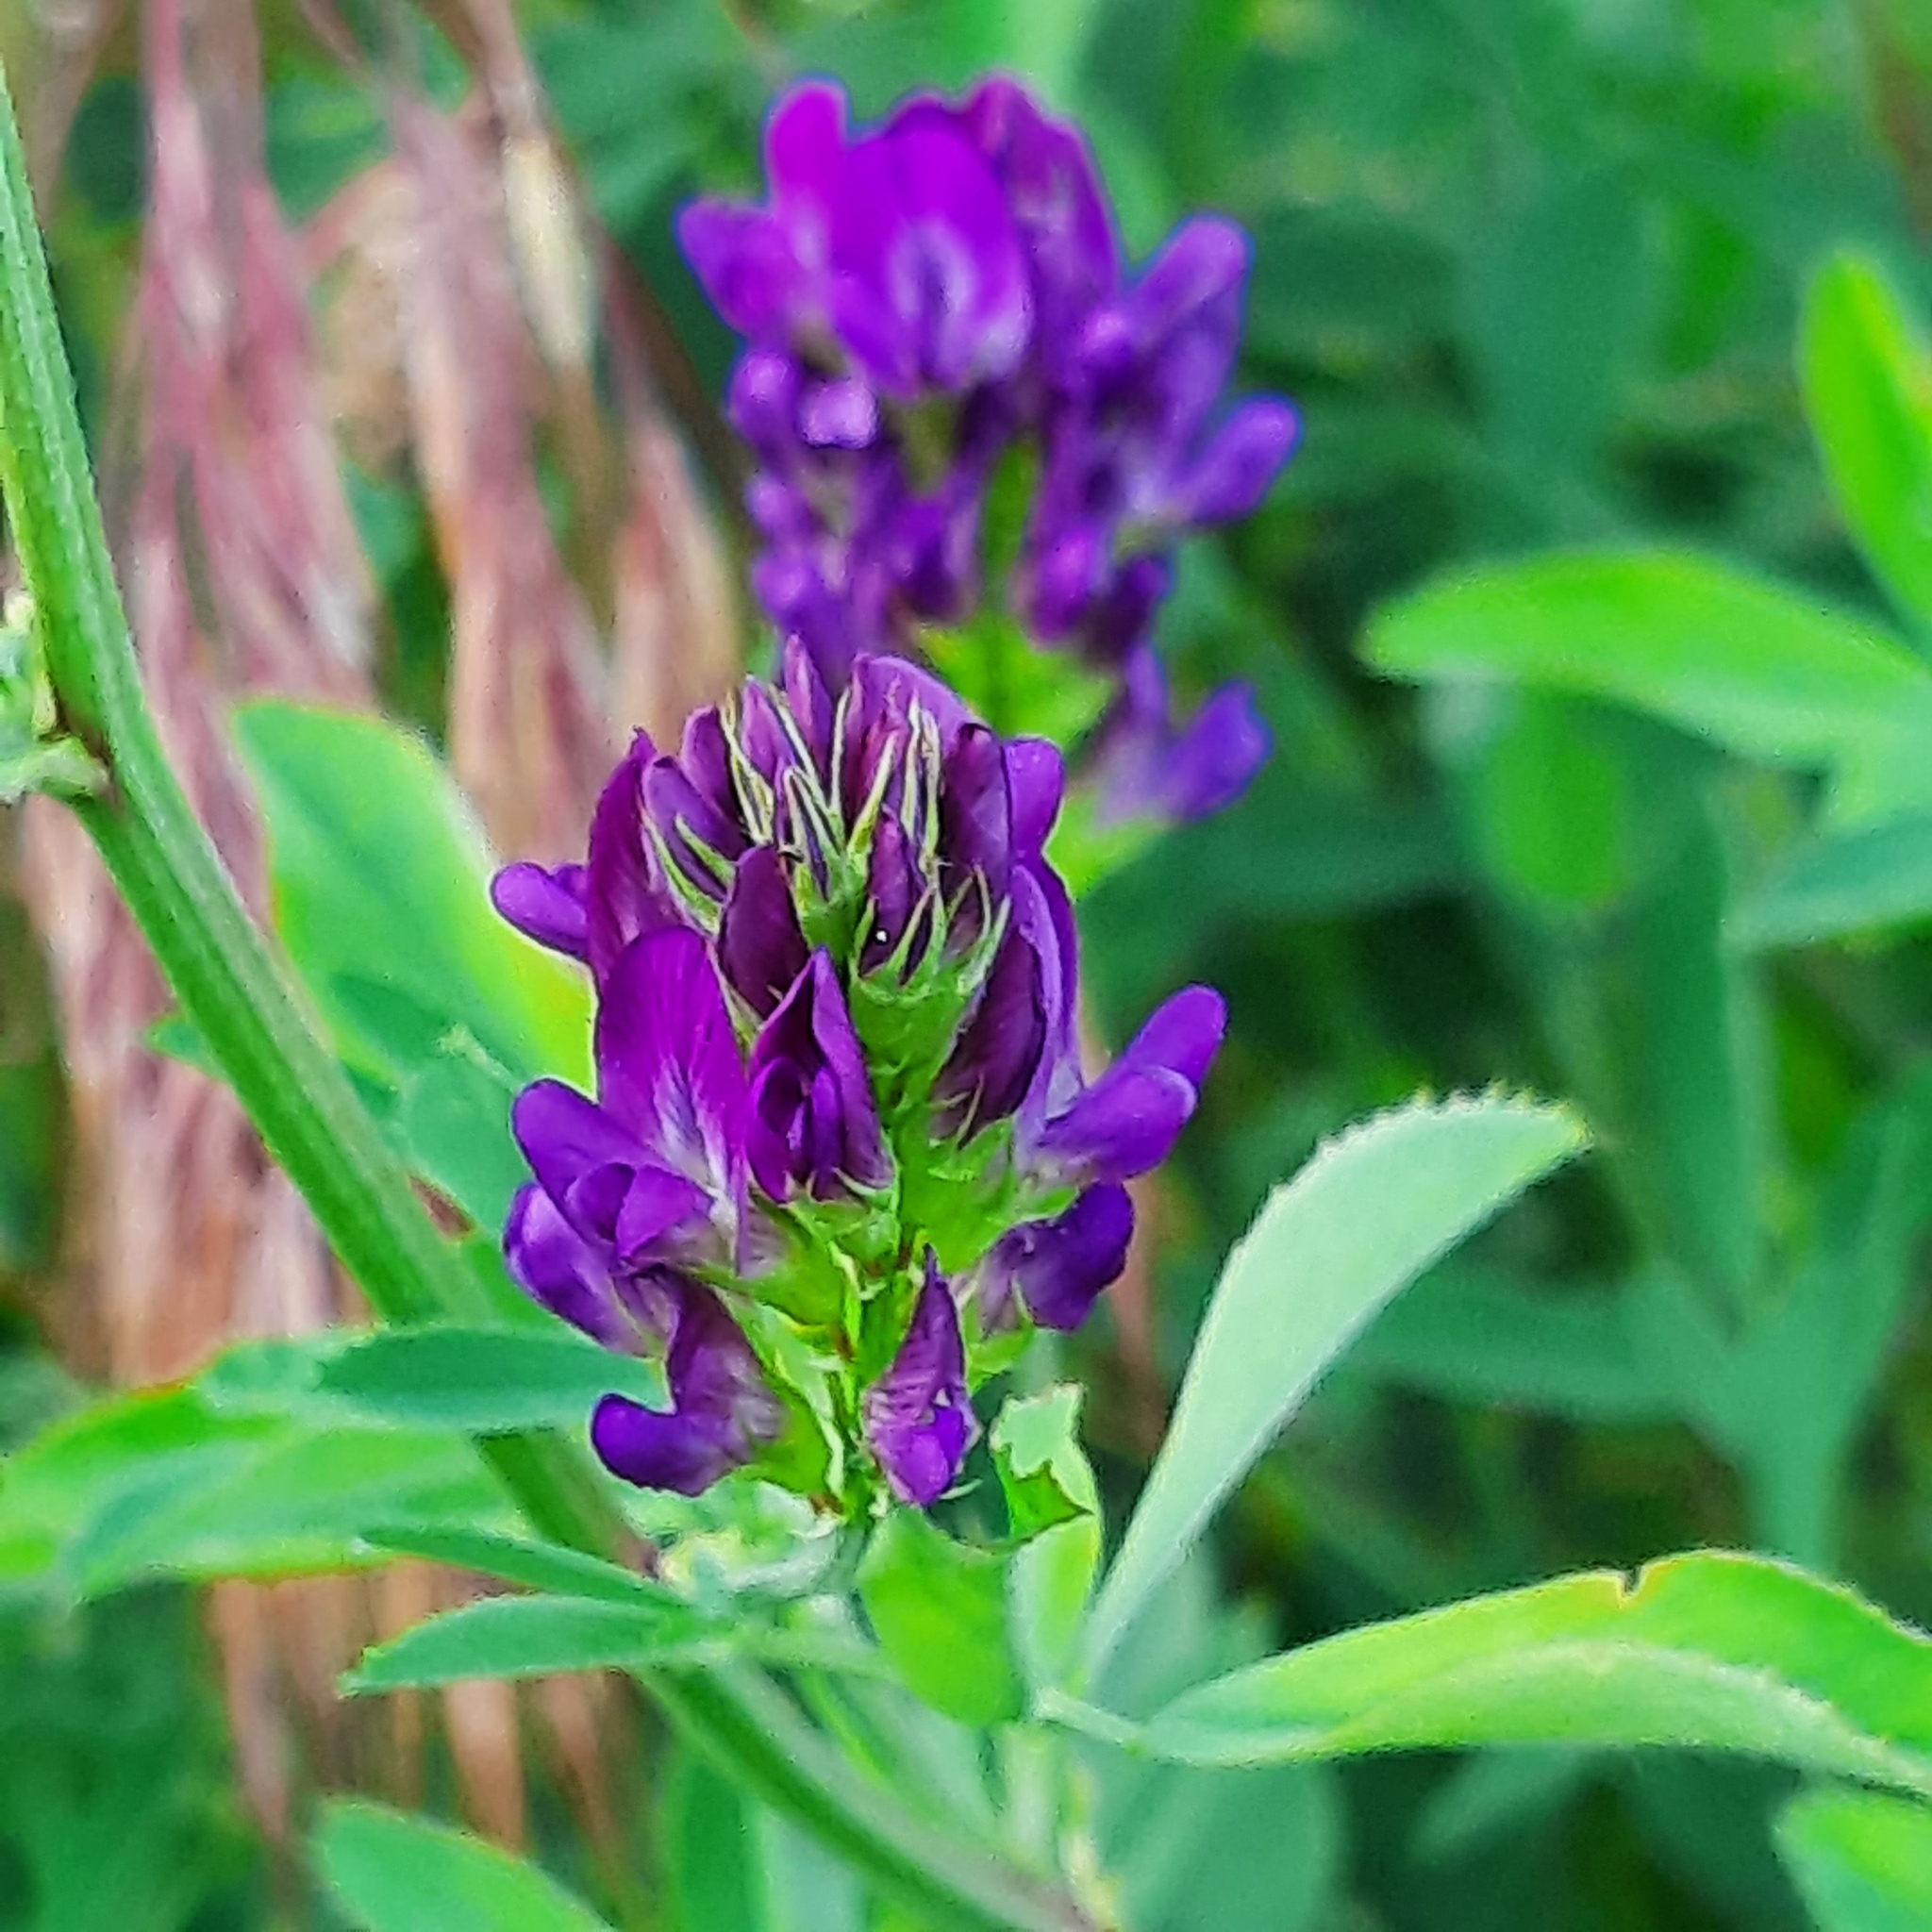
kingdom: Plantae
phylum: Tracheophyta
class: Magnoliopsida
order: Fabales
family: Fabaceae
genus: Medicago
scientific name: Medicago sativa
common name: Alfalfa
